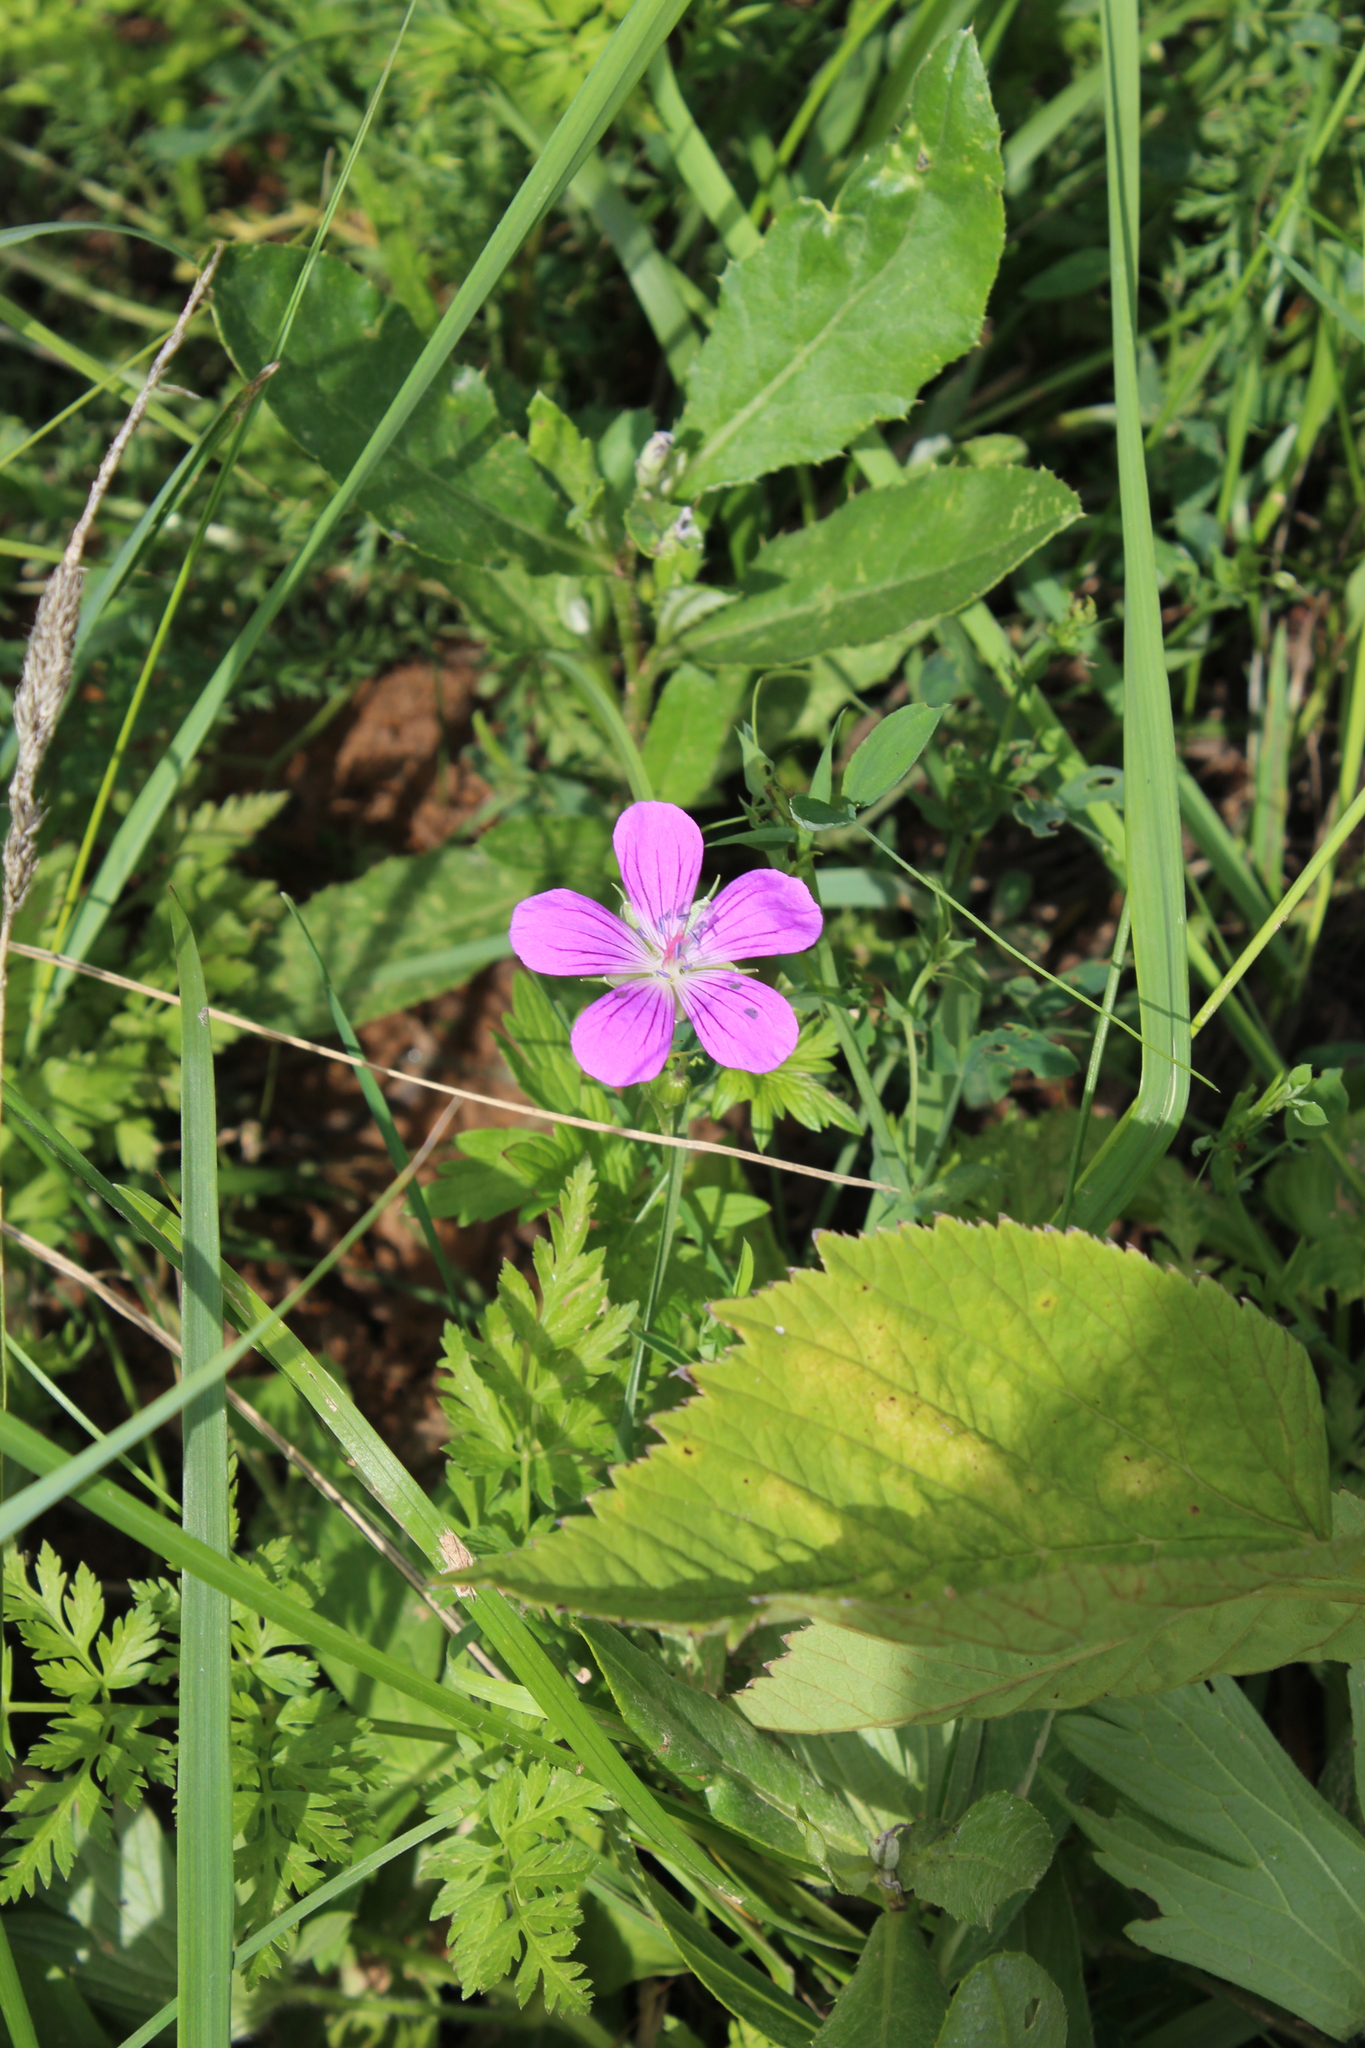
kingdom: Plantae
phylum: Tracheophyta
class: Magnoliopsida
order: Geraniales
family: Geraniaceae
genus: Geranium
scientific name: Geranium palustre
